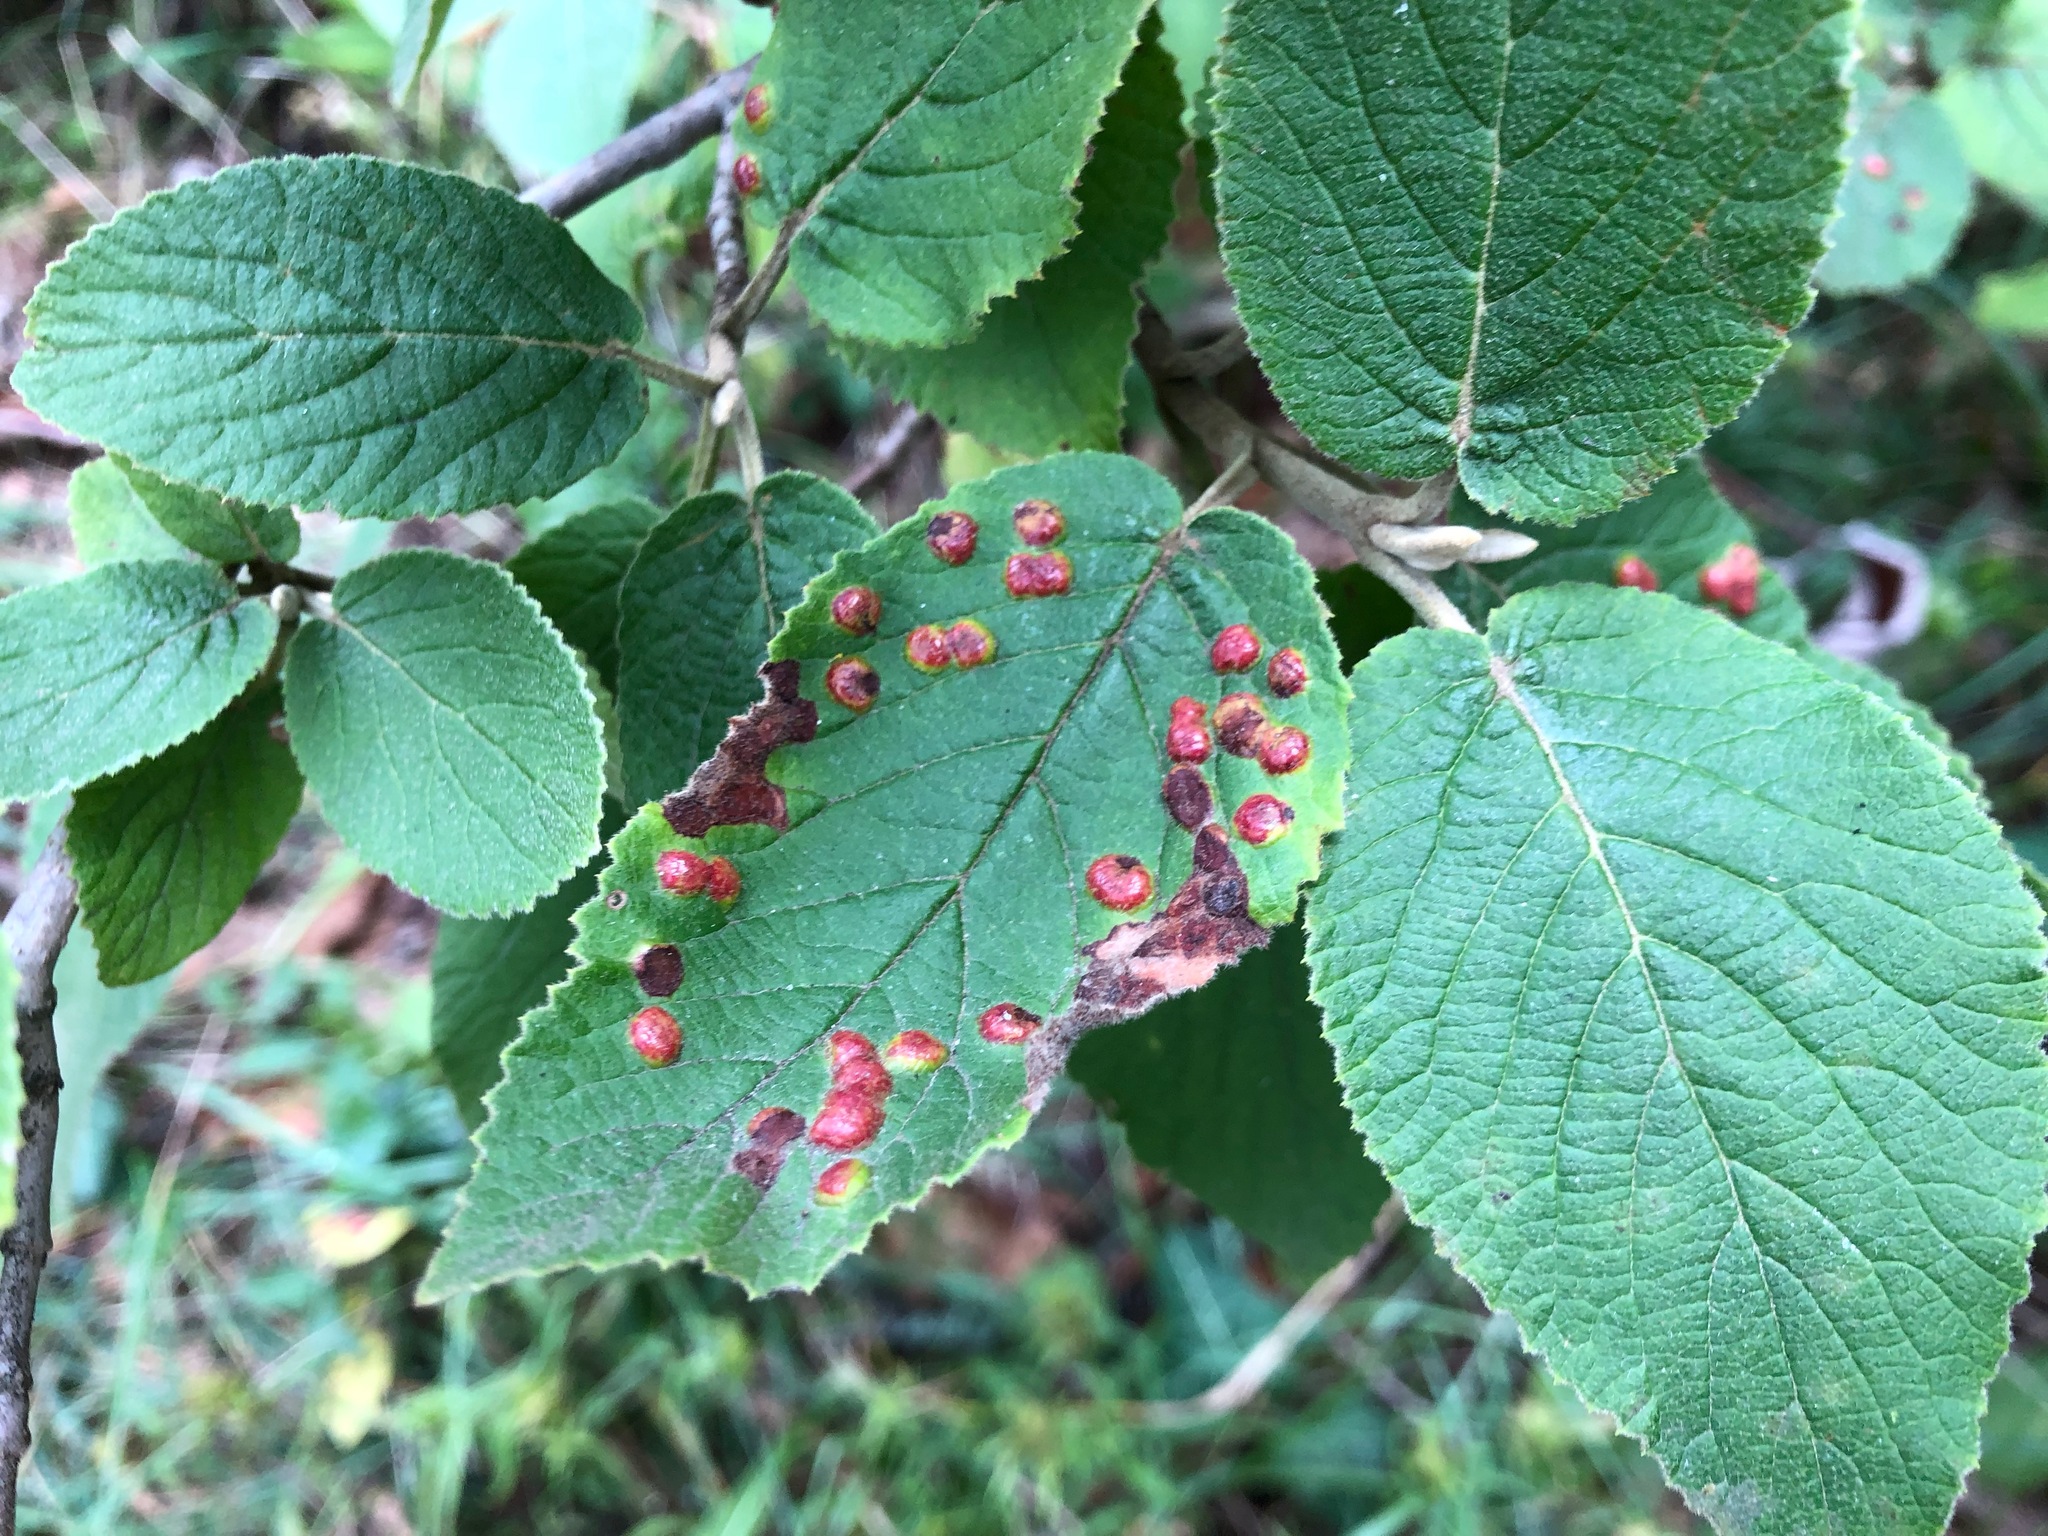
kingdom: Animalia
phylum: Arthropoda
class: Insecta
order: Diptera
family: Cecidomyiidae
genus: Sackenomyia
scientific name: Sackenomyia reaumurii
